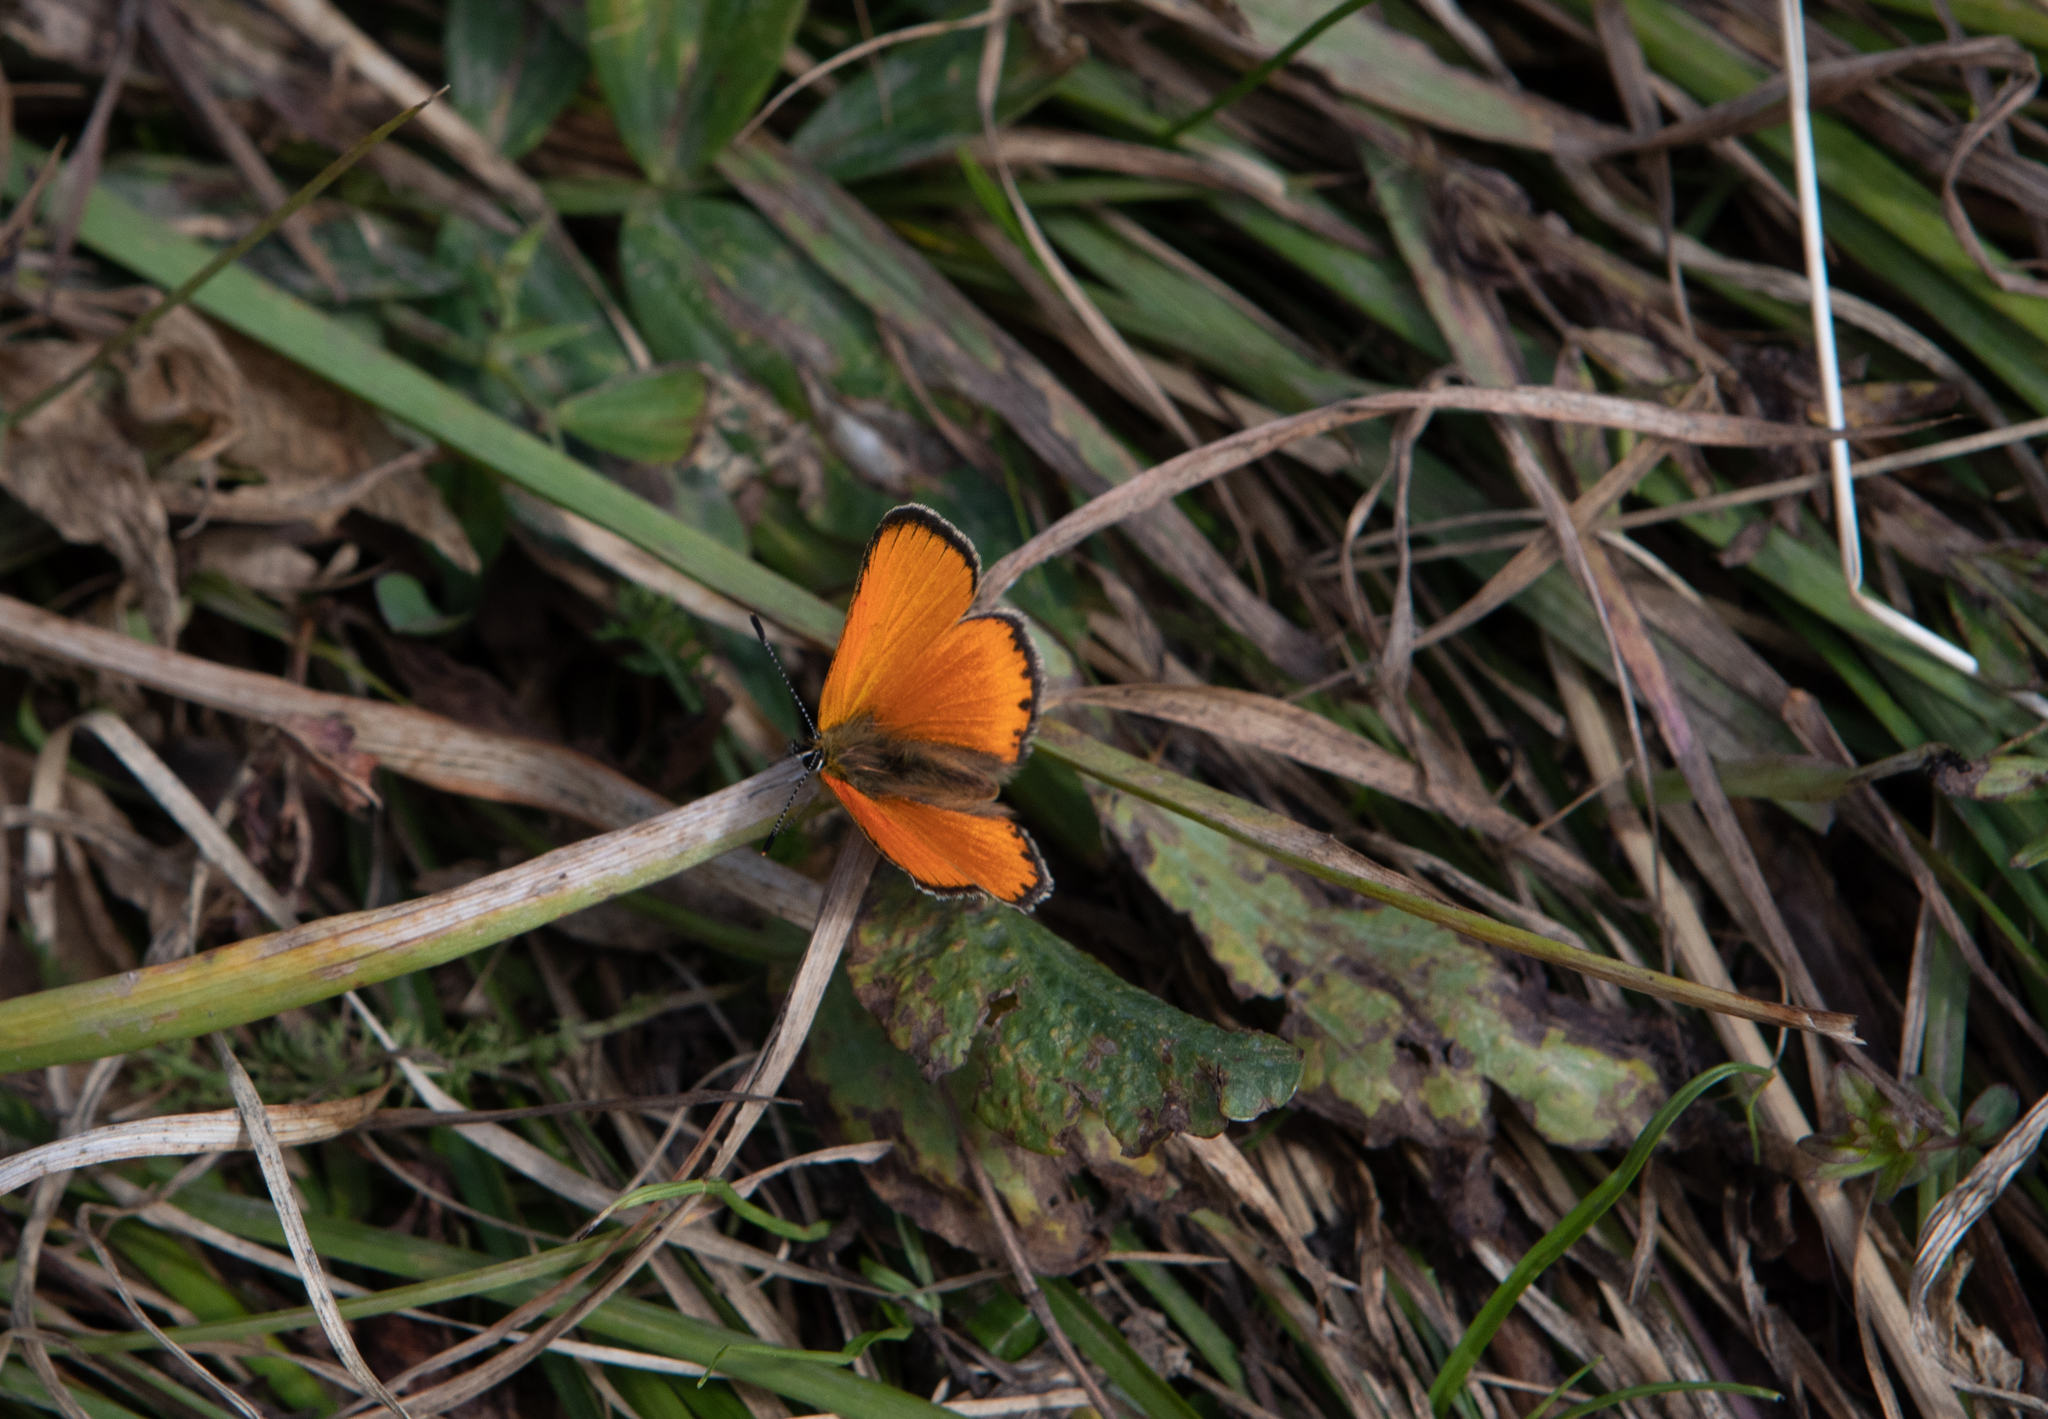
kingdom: Animalia
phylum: Arthropoda
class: Insecta
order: Lepidoptera
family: Lycaenidae
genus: Lycaena
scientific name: Lycaena virgaureae
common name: Scarce copper
